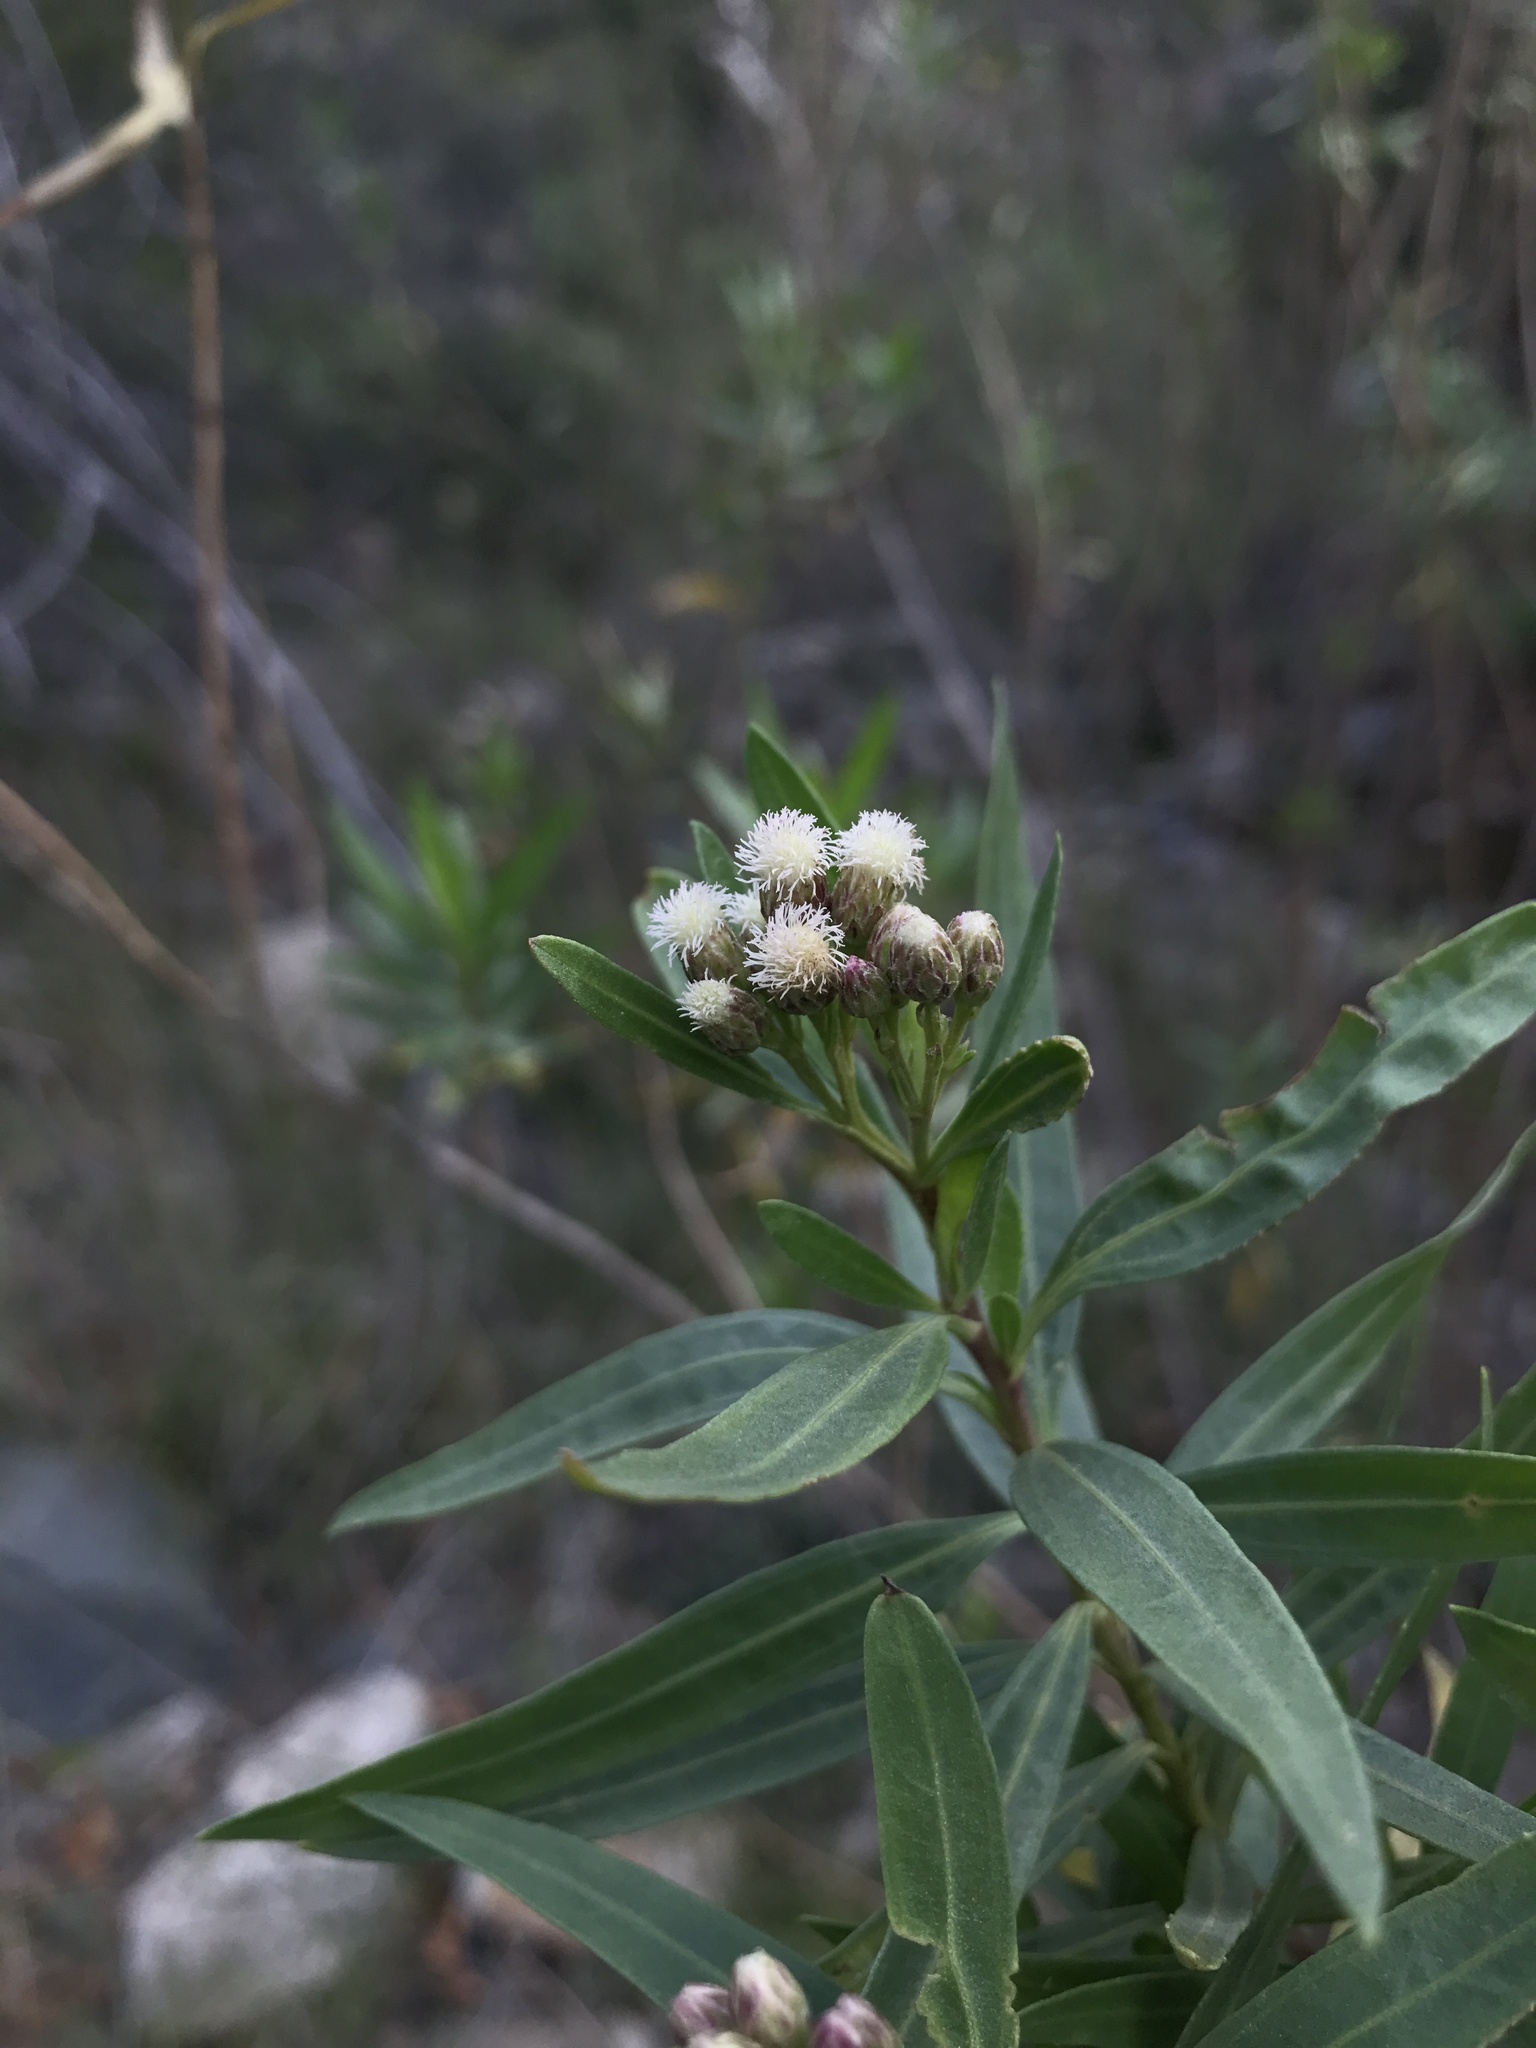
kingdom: Plantae
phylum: Tracheophyta
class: Magnoliopsida
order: Asterales
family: Asteraceae
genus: Baccharis
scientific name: Baccharis salicifolia
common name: Sticky baccharis
